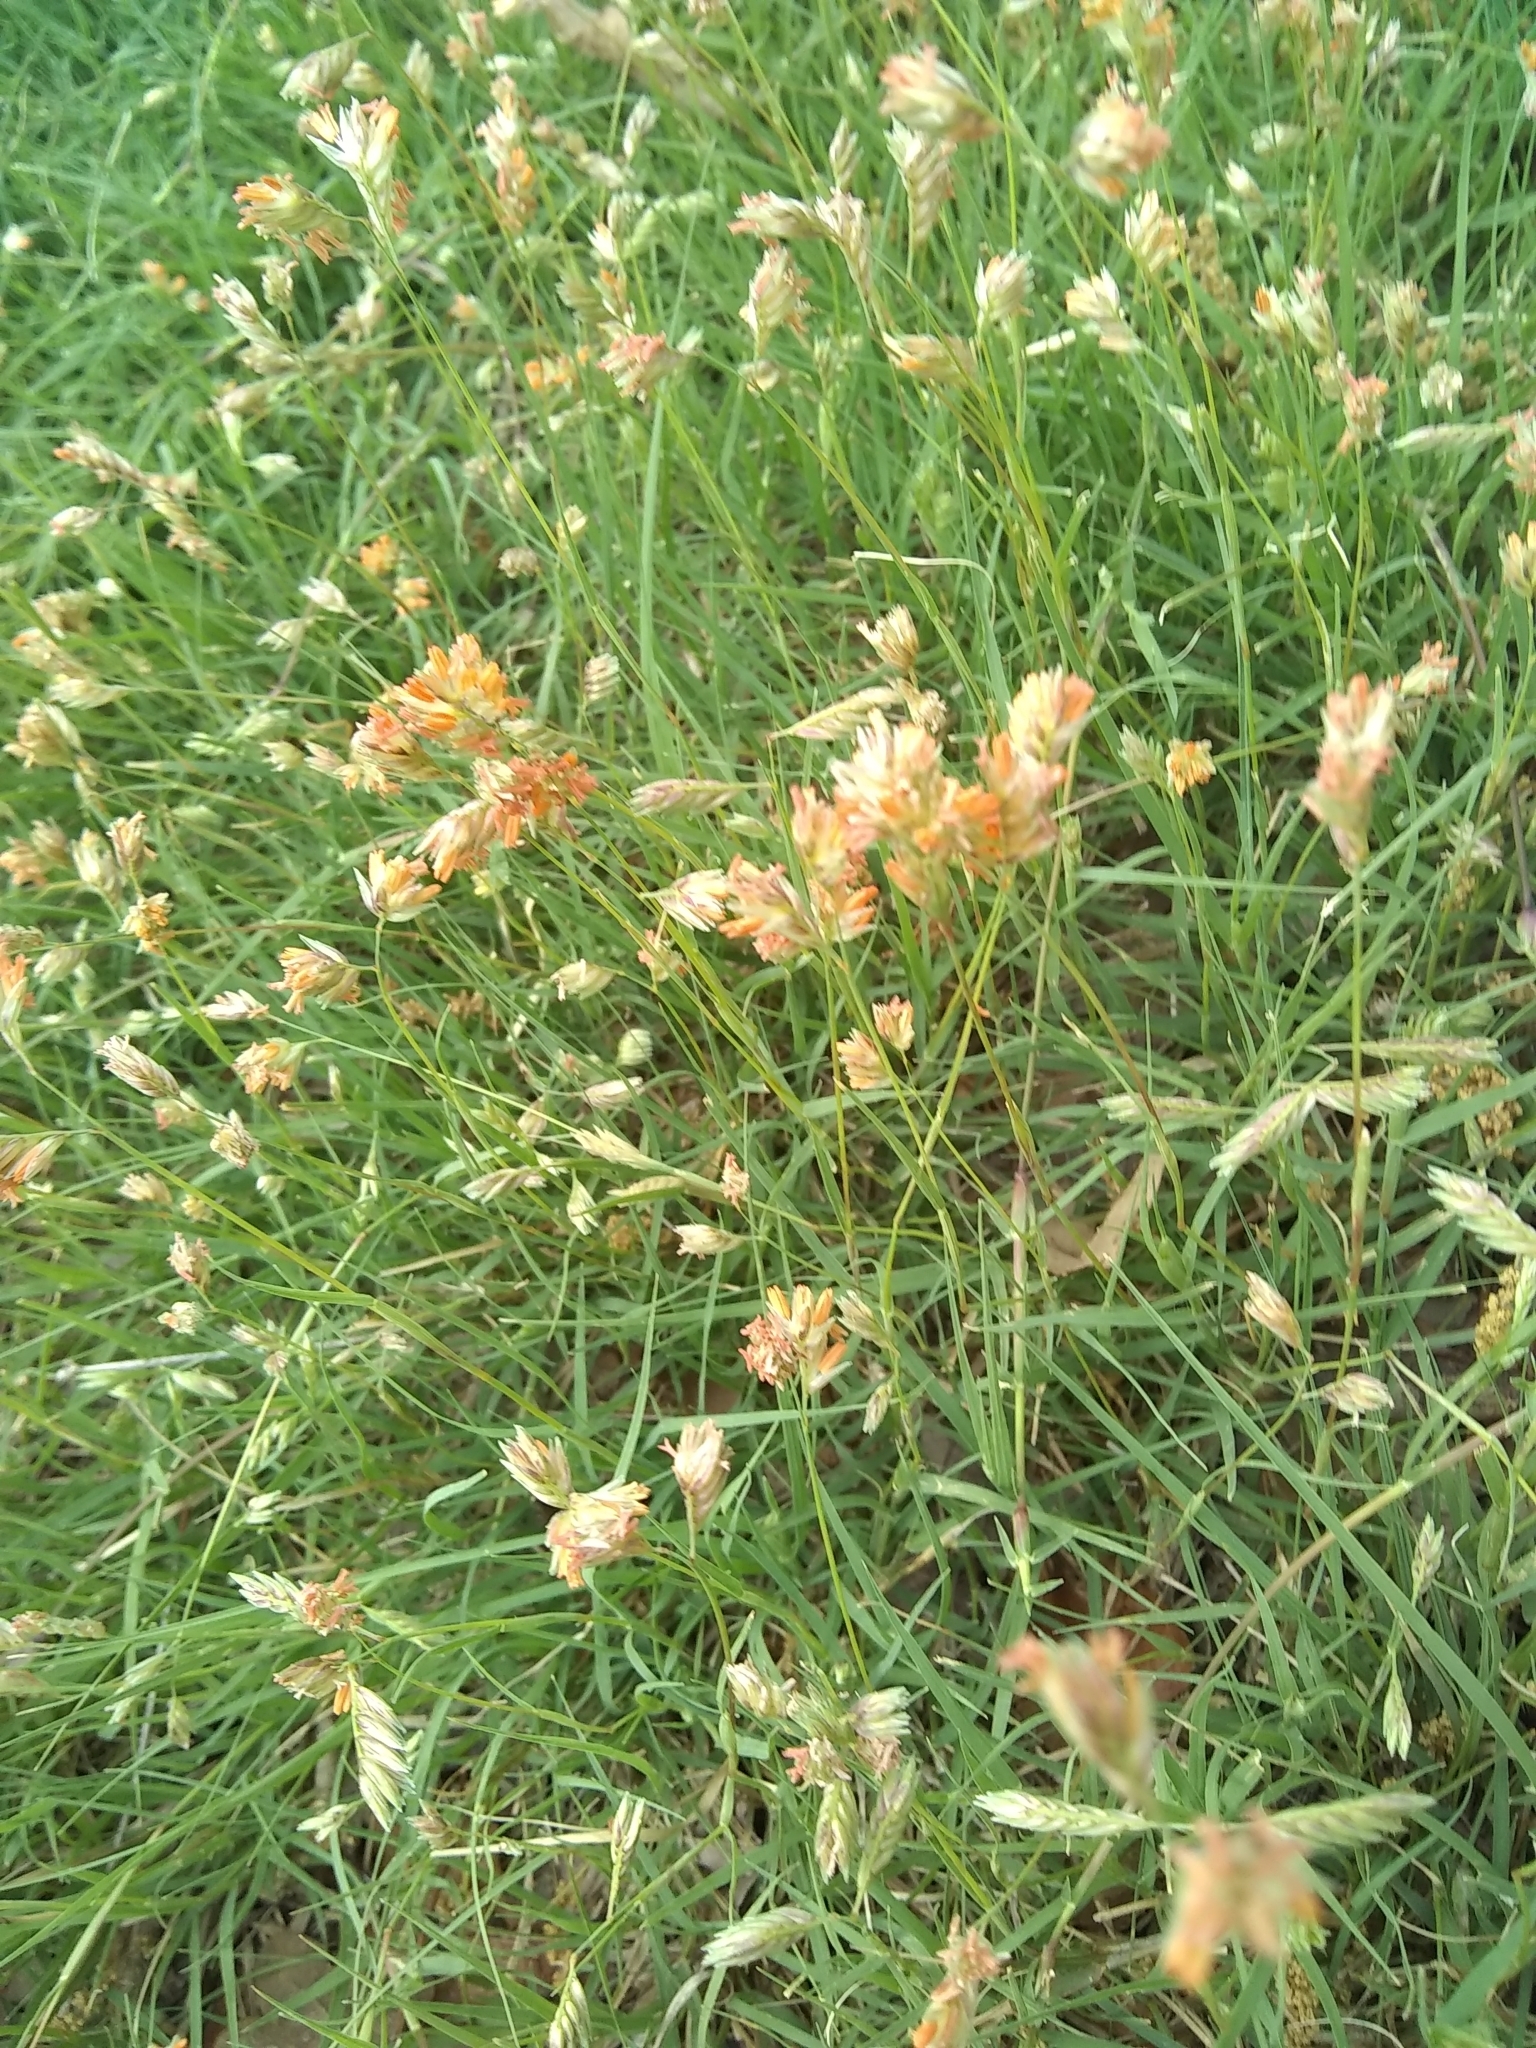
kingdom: Plantae
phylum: Tracheophyta
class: Liliopsida
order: Poales
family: Poaceae
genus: Bouteloua
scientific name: Bouteloua dactyloides
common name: Buffalo grass
